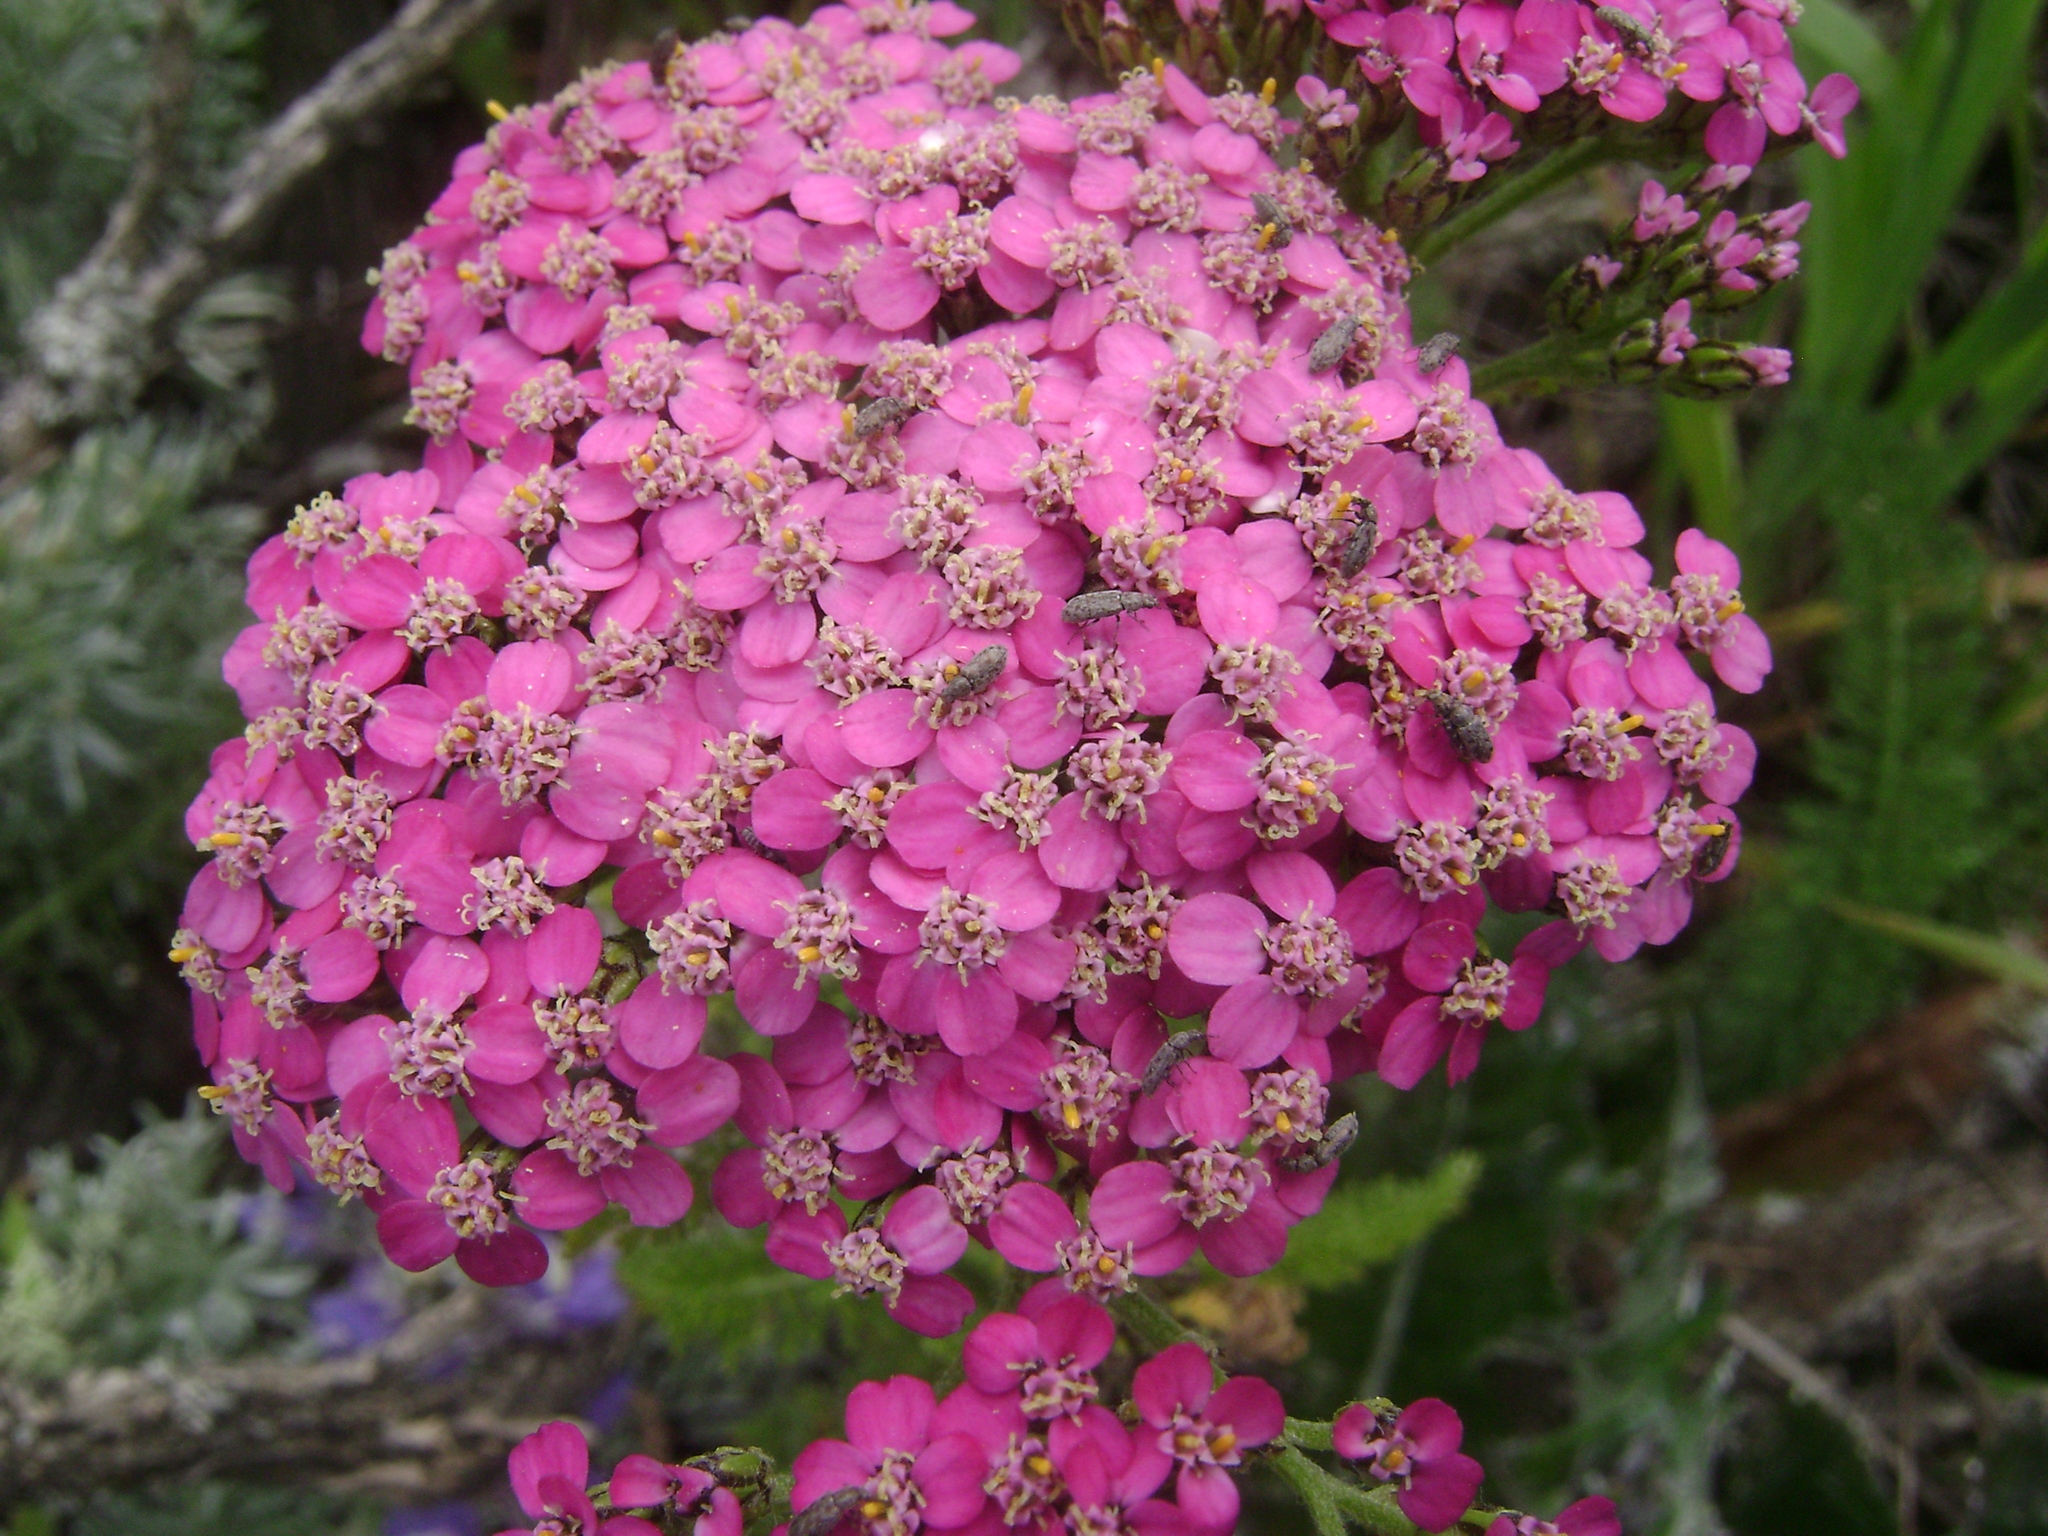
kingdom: Plantae
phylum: Tracheophyta
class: Magnoliopsida
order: Asterales
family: Asteraceae
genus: Achillea
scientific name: Achillea millefolium
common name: Yarrow
